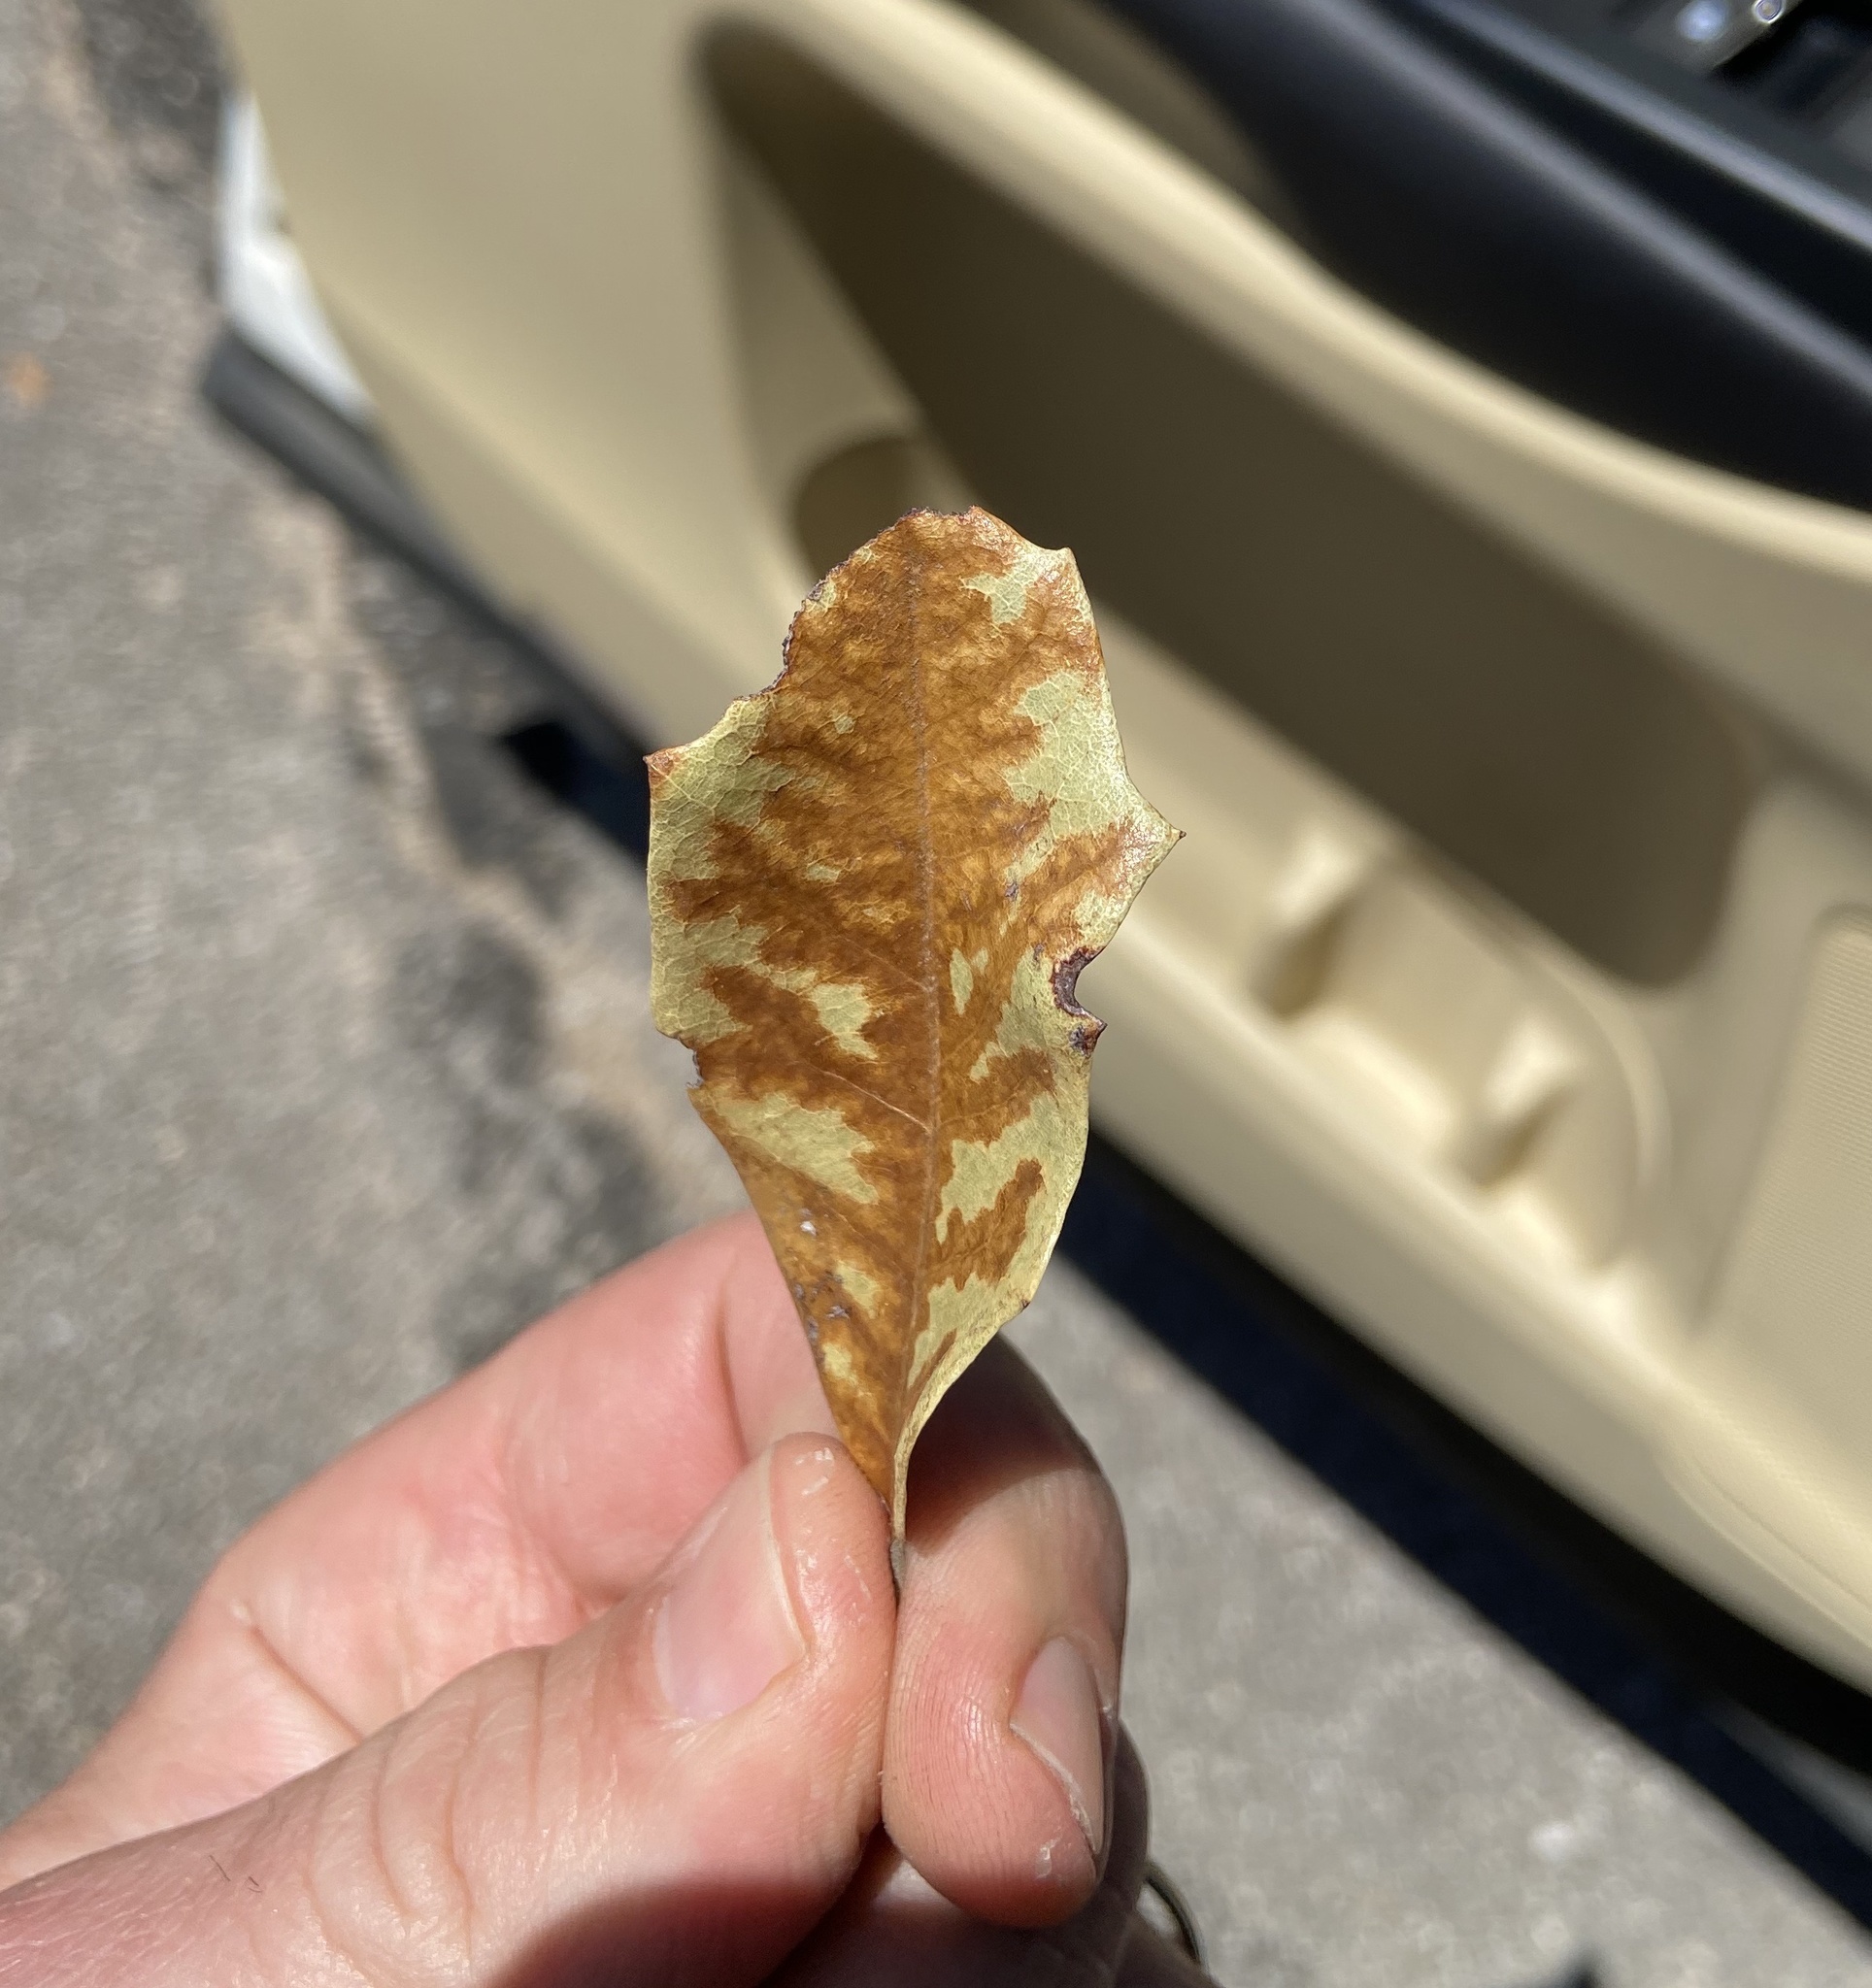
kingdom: Fungi
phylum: Ascomycota
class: Sordariomycetes
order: Microascales
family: Ceratocystidaceae
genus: Ceratocystis
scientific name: Ceratocystis fagacearum
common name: Oak wilt fungus
